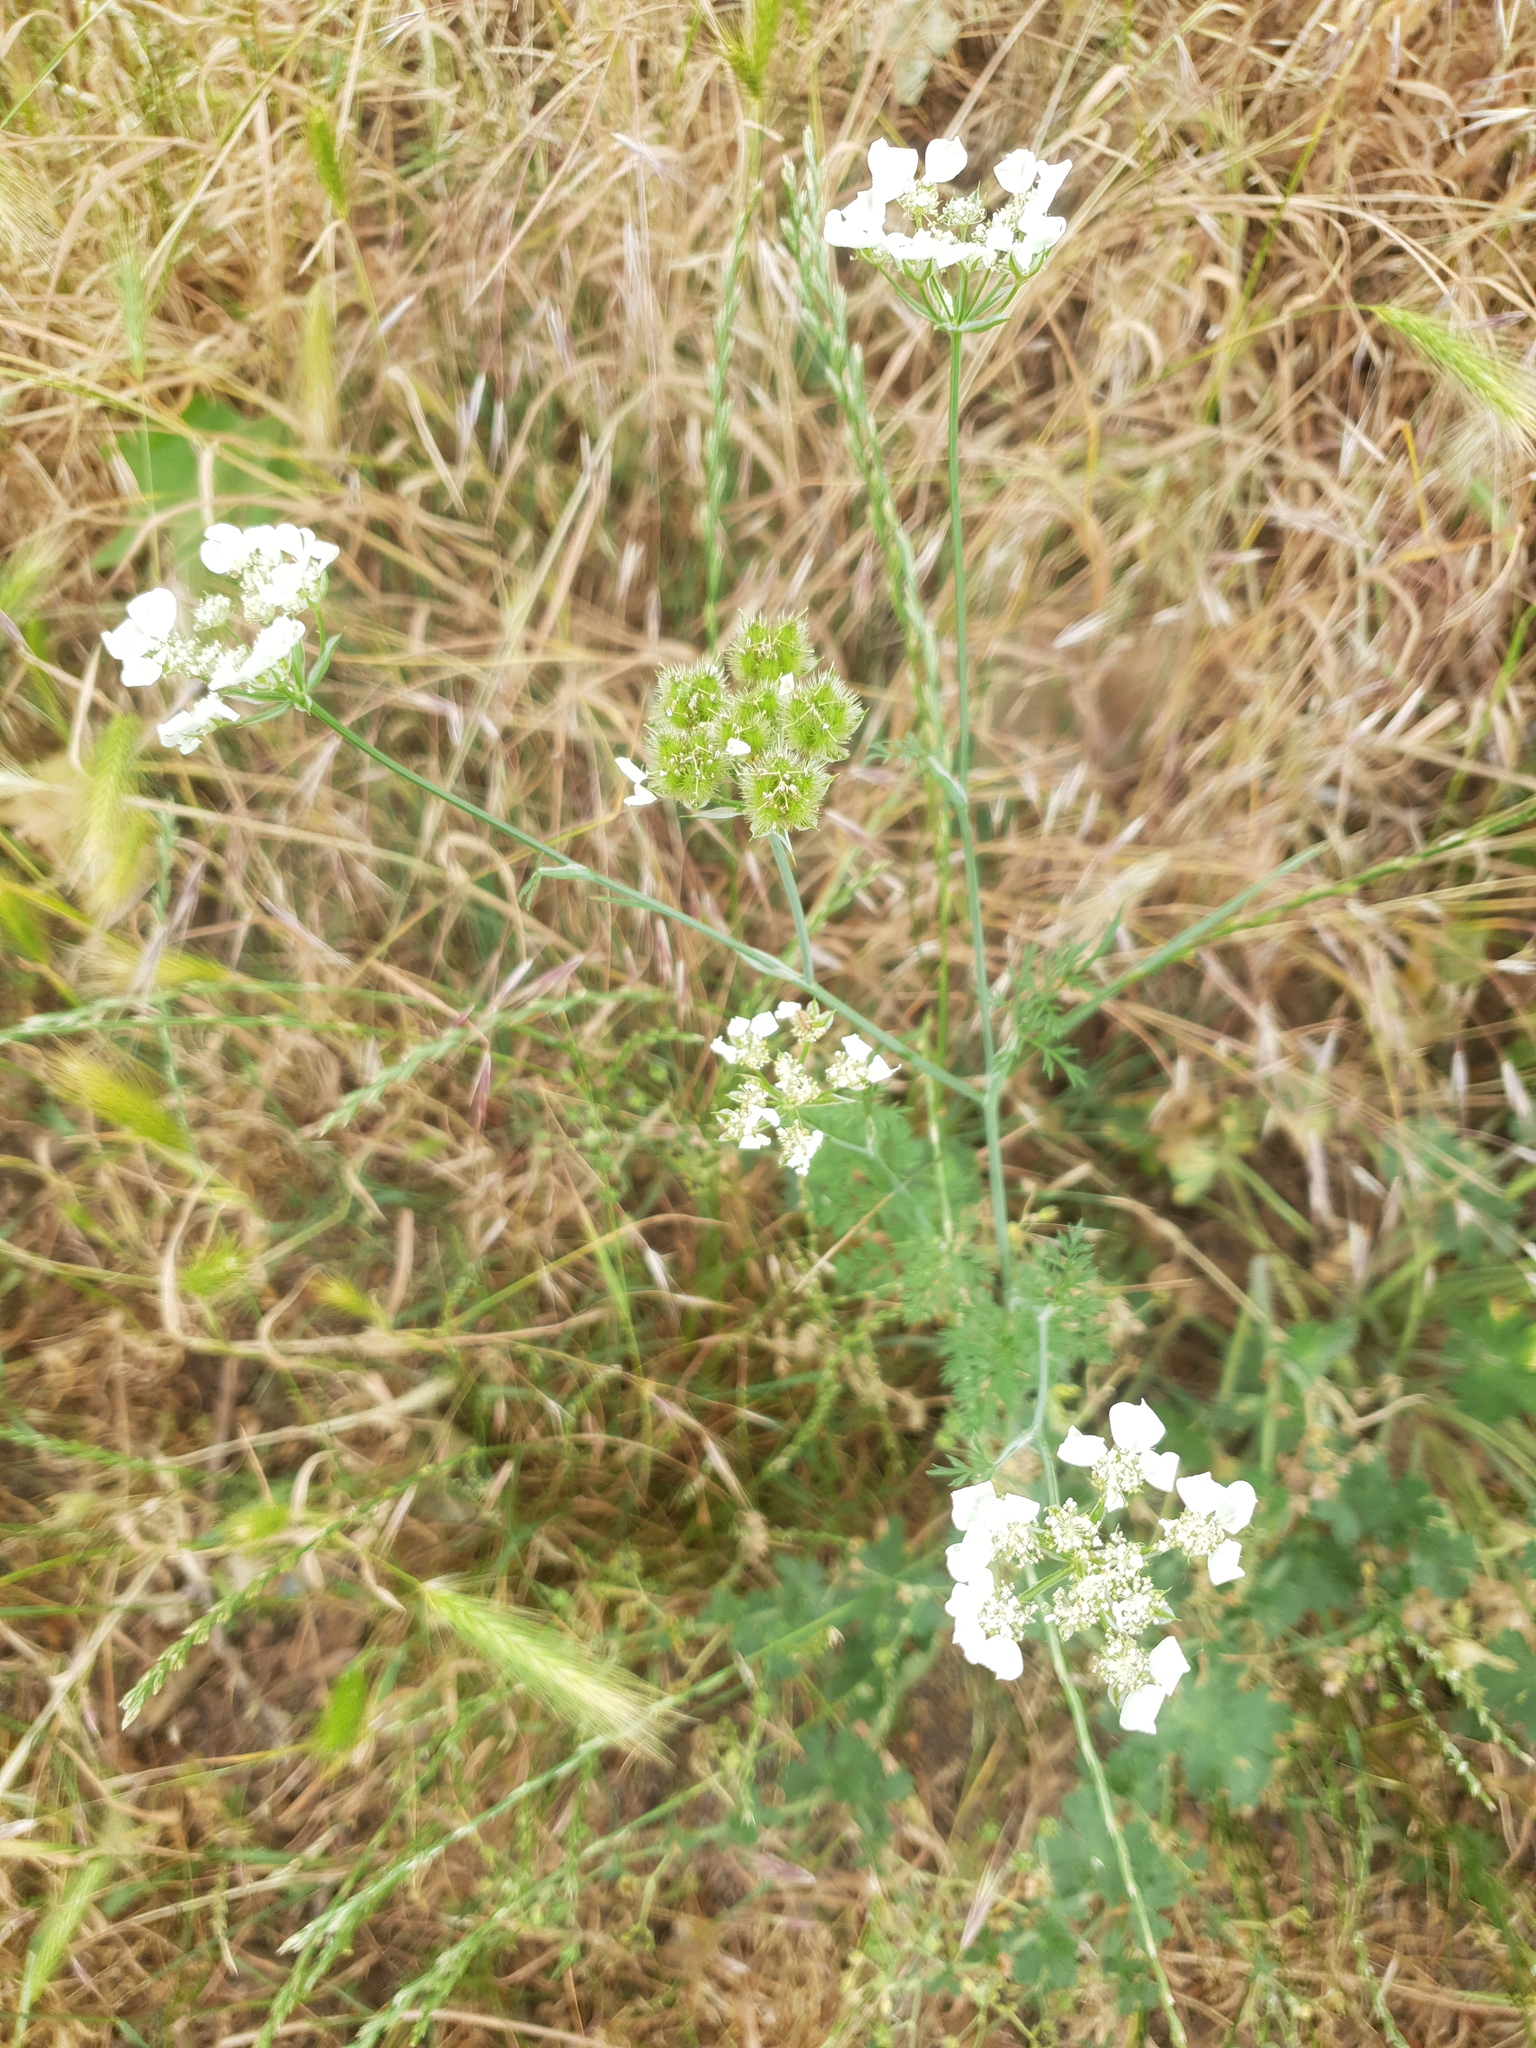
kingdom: Plantae
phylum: Tracheophyta
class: Magnoliopsida
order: Apiales
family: Apiaceae
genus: Orlaya
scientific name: Orlaya grandiflora
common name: White lace flower
